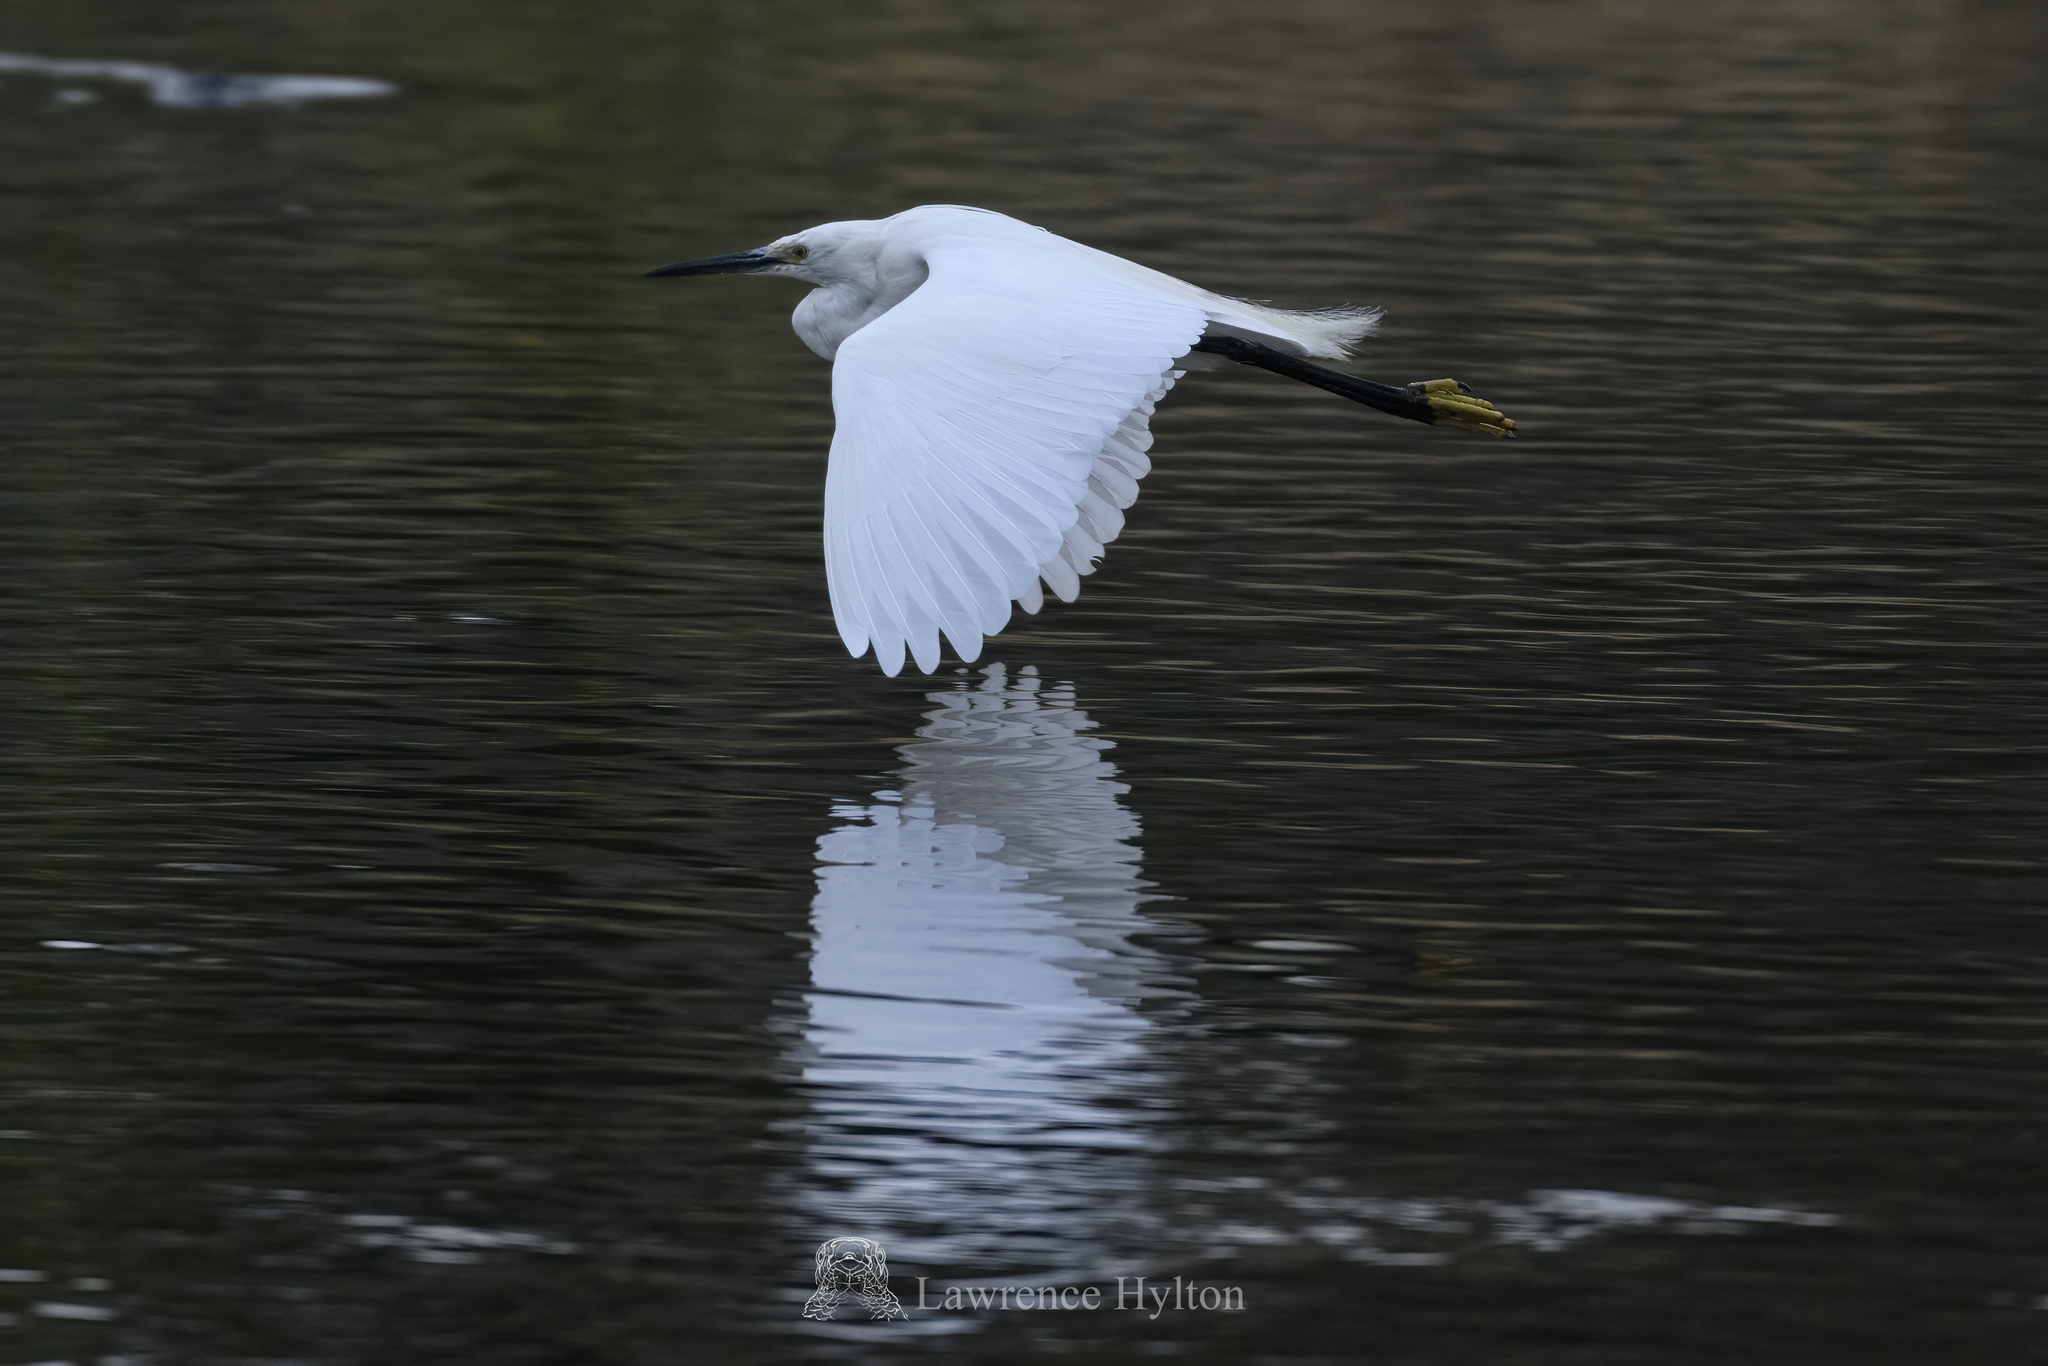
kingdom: Animalia
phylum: Chordata
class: Aves
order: Pelecaniformes
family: Ardeidae
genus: Egretta
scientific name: Egretta garzetta
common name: Little egret
